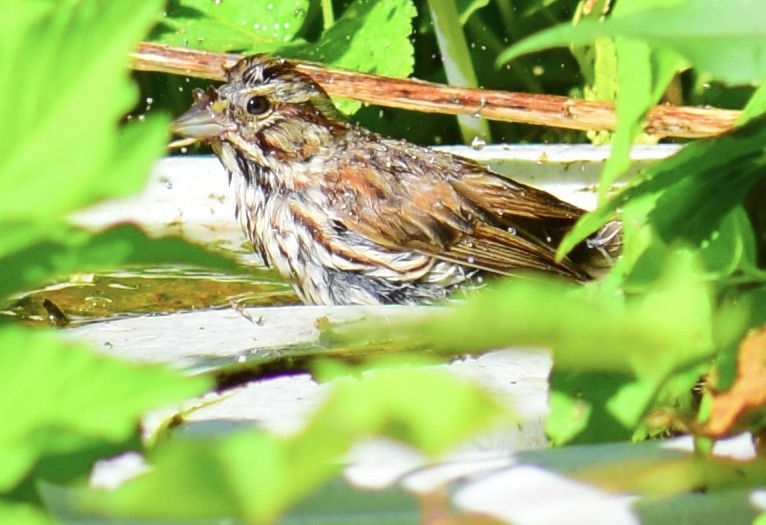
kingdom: Animalia
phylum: Chordata
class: Aves
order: Passeriformes
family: Passerellidae
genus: Melospiza
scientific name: Melospiza melodia
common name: Song sparrow
